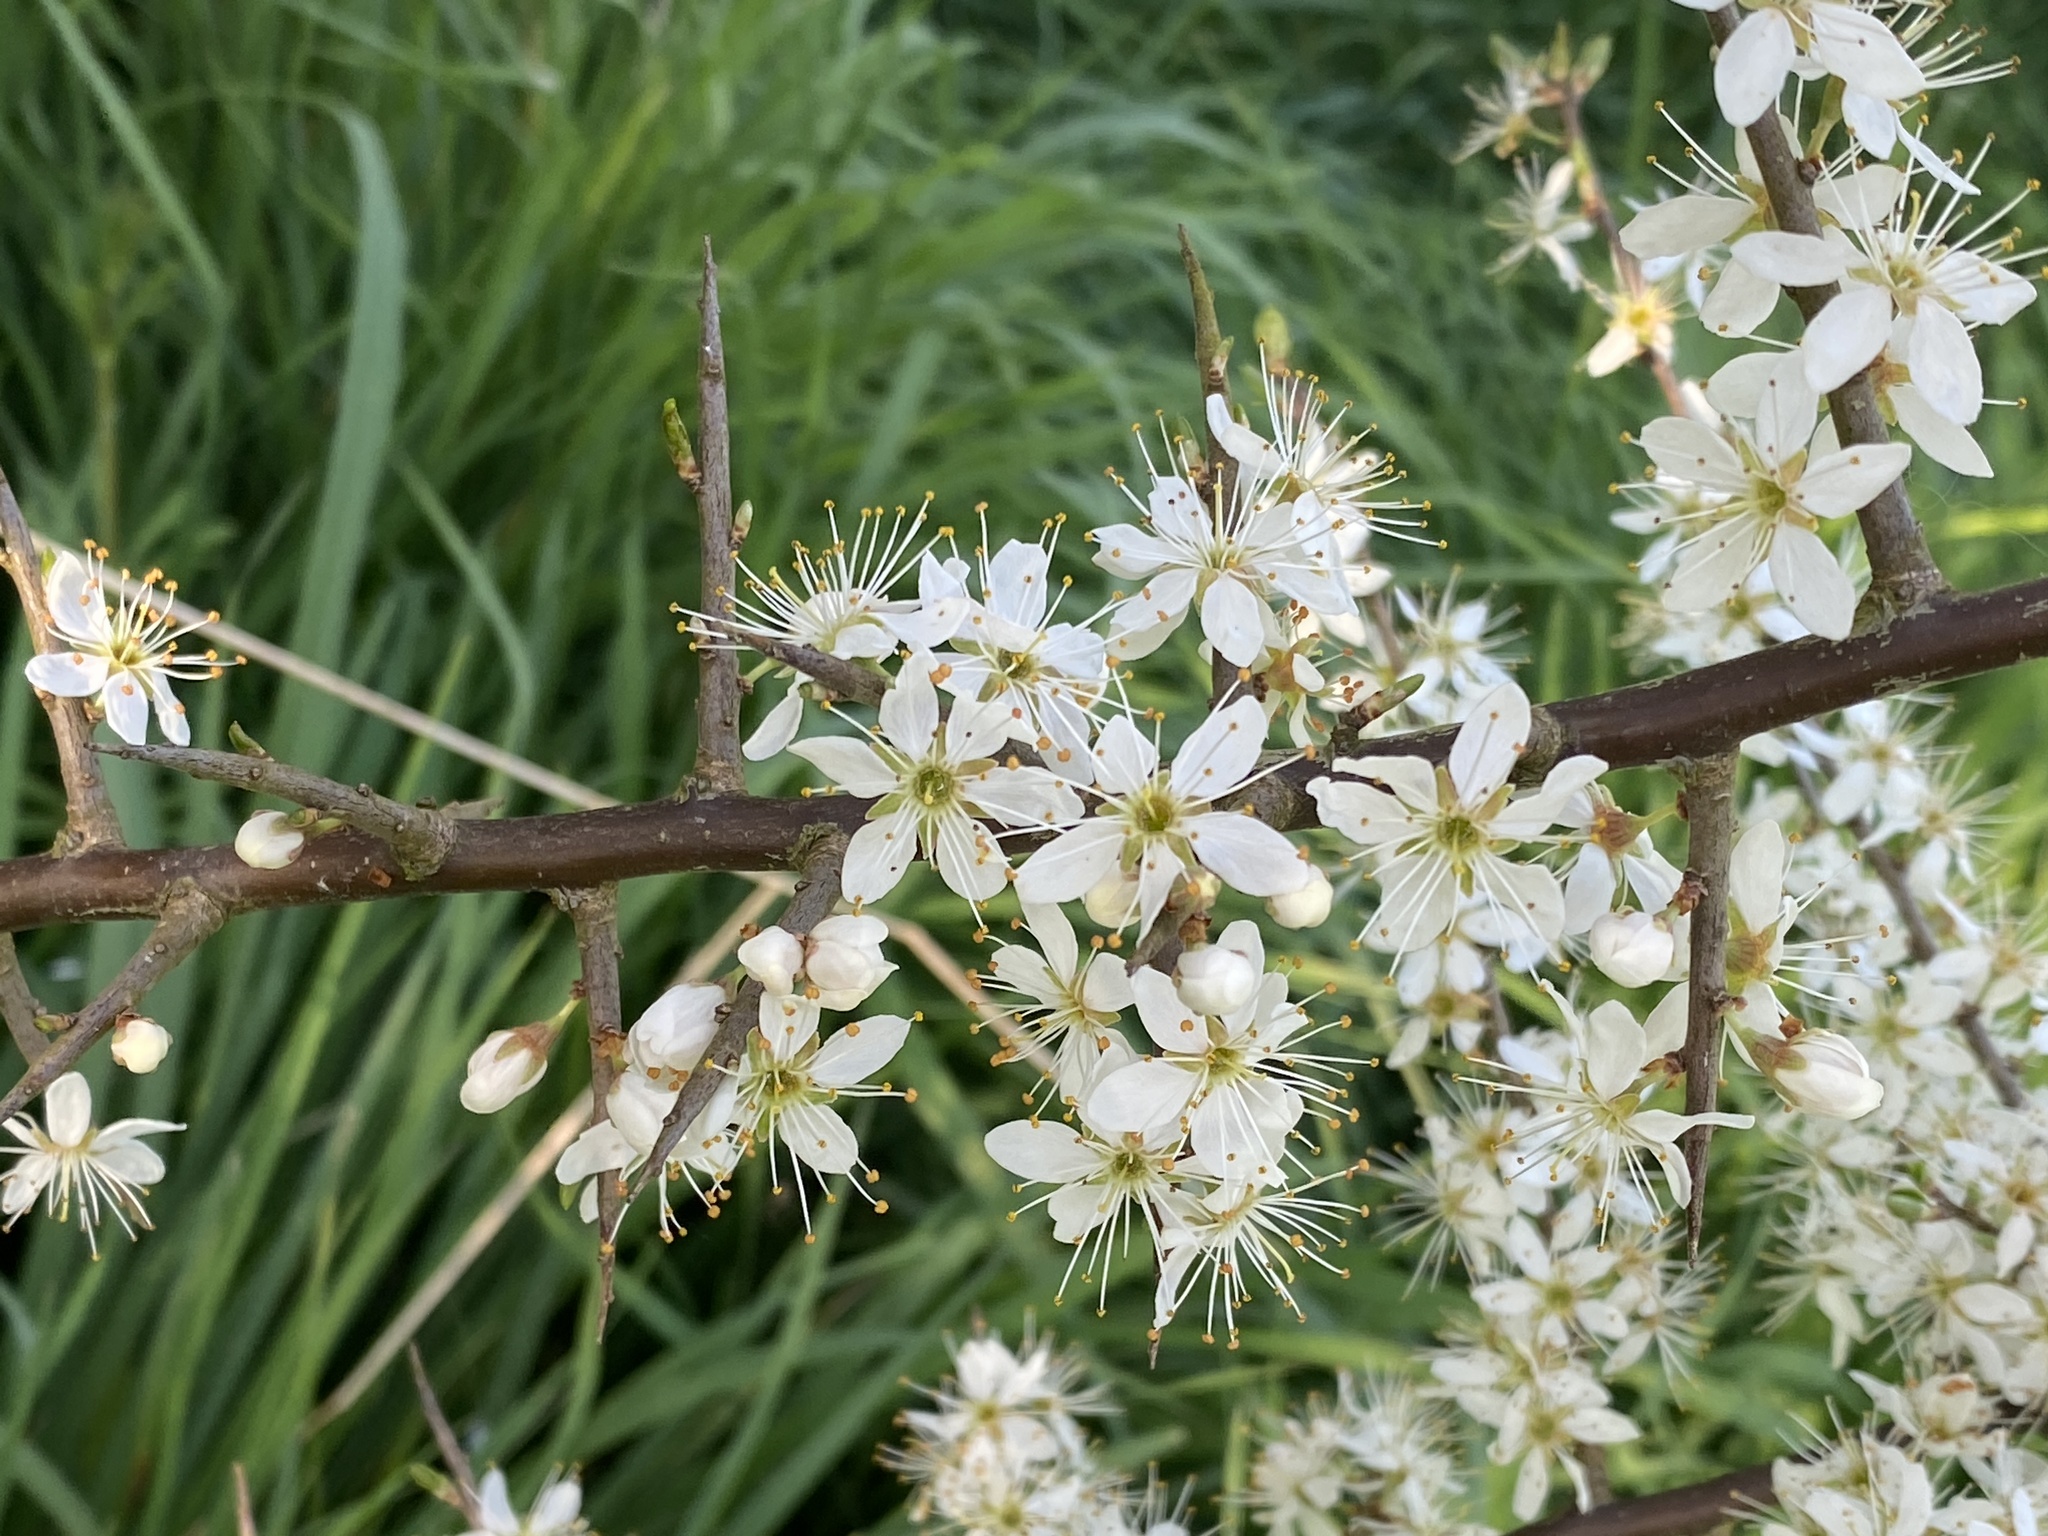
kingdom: Plantae
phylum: Tracheophyta
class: Magnoliopsida
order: Rosales
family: Rosaceae
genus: Prunus
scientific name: Prunus spinosa
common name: Blackthorn
